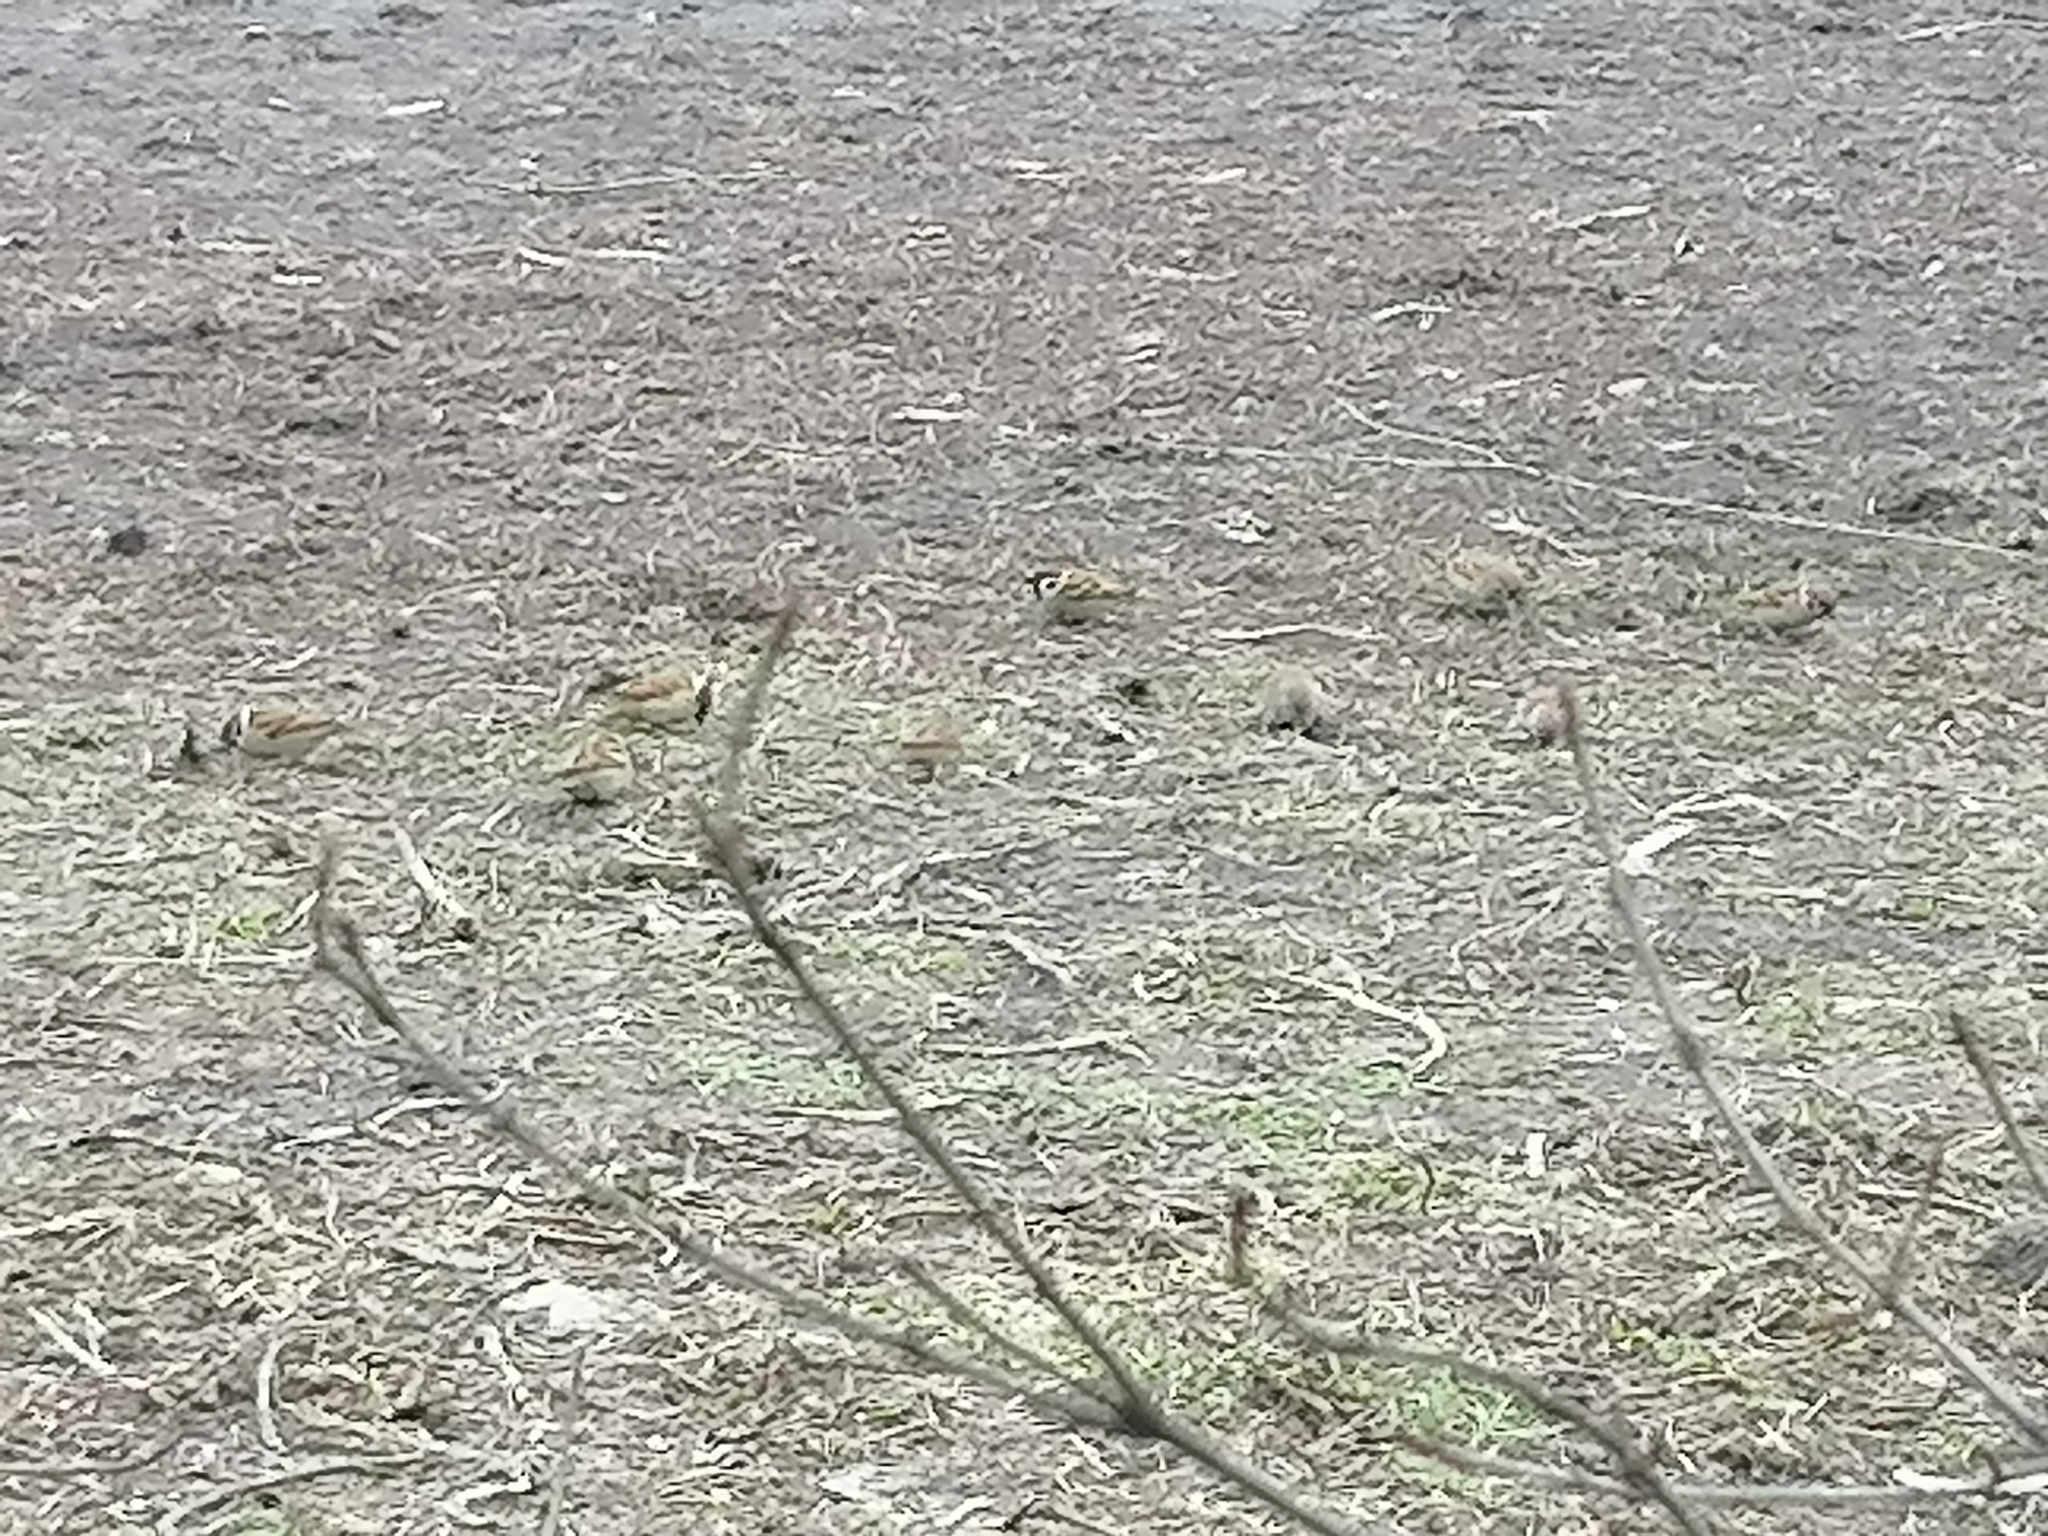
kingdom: Animalia
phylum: Chordata
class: Aves
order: Passeriformes
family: Passeridae
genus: Passer
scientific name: Passer montanus
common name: Eurasian tree sparrow
